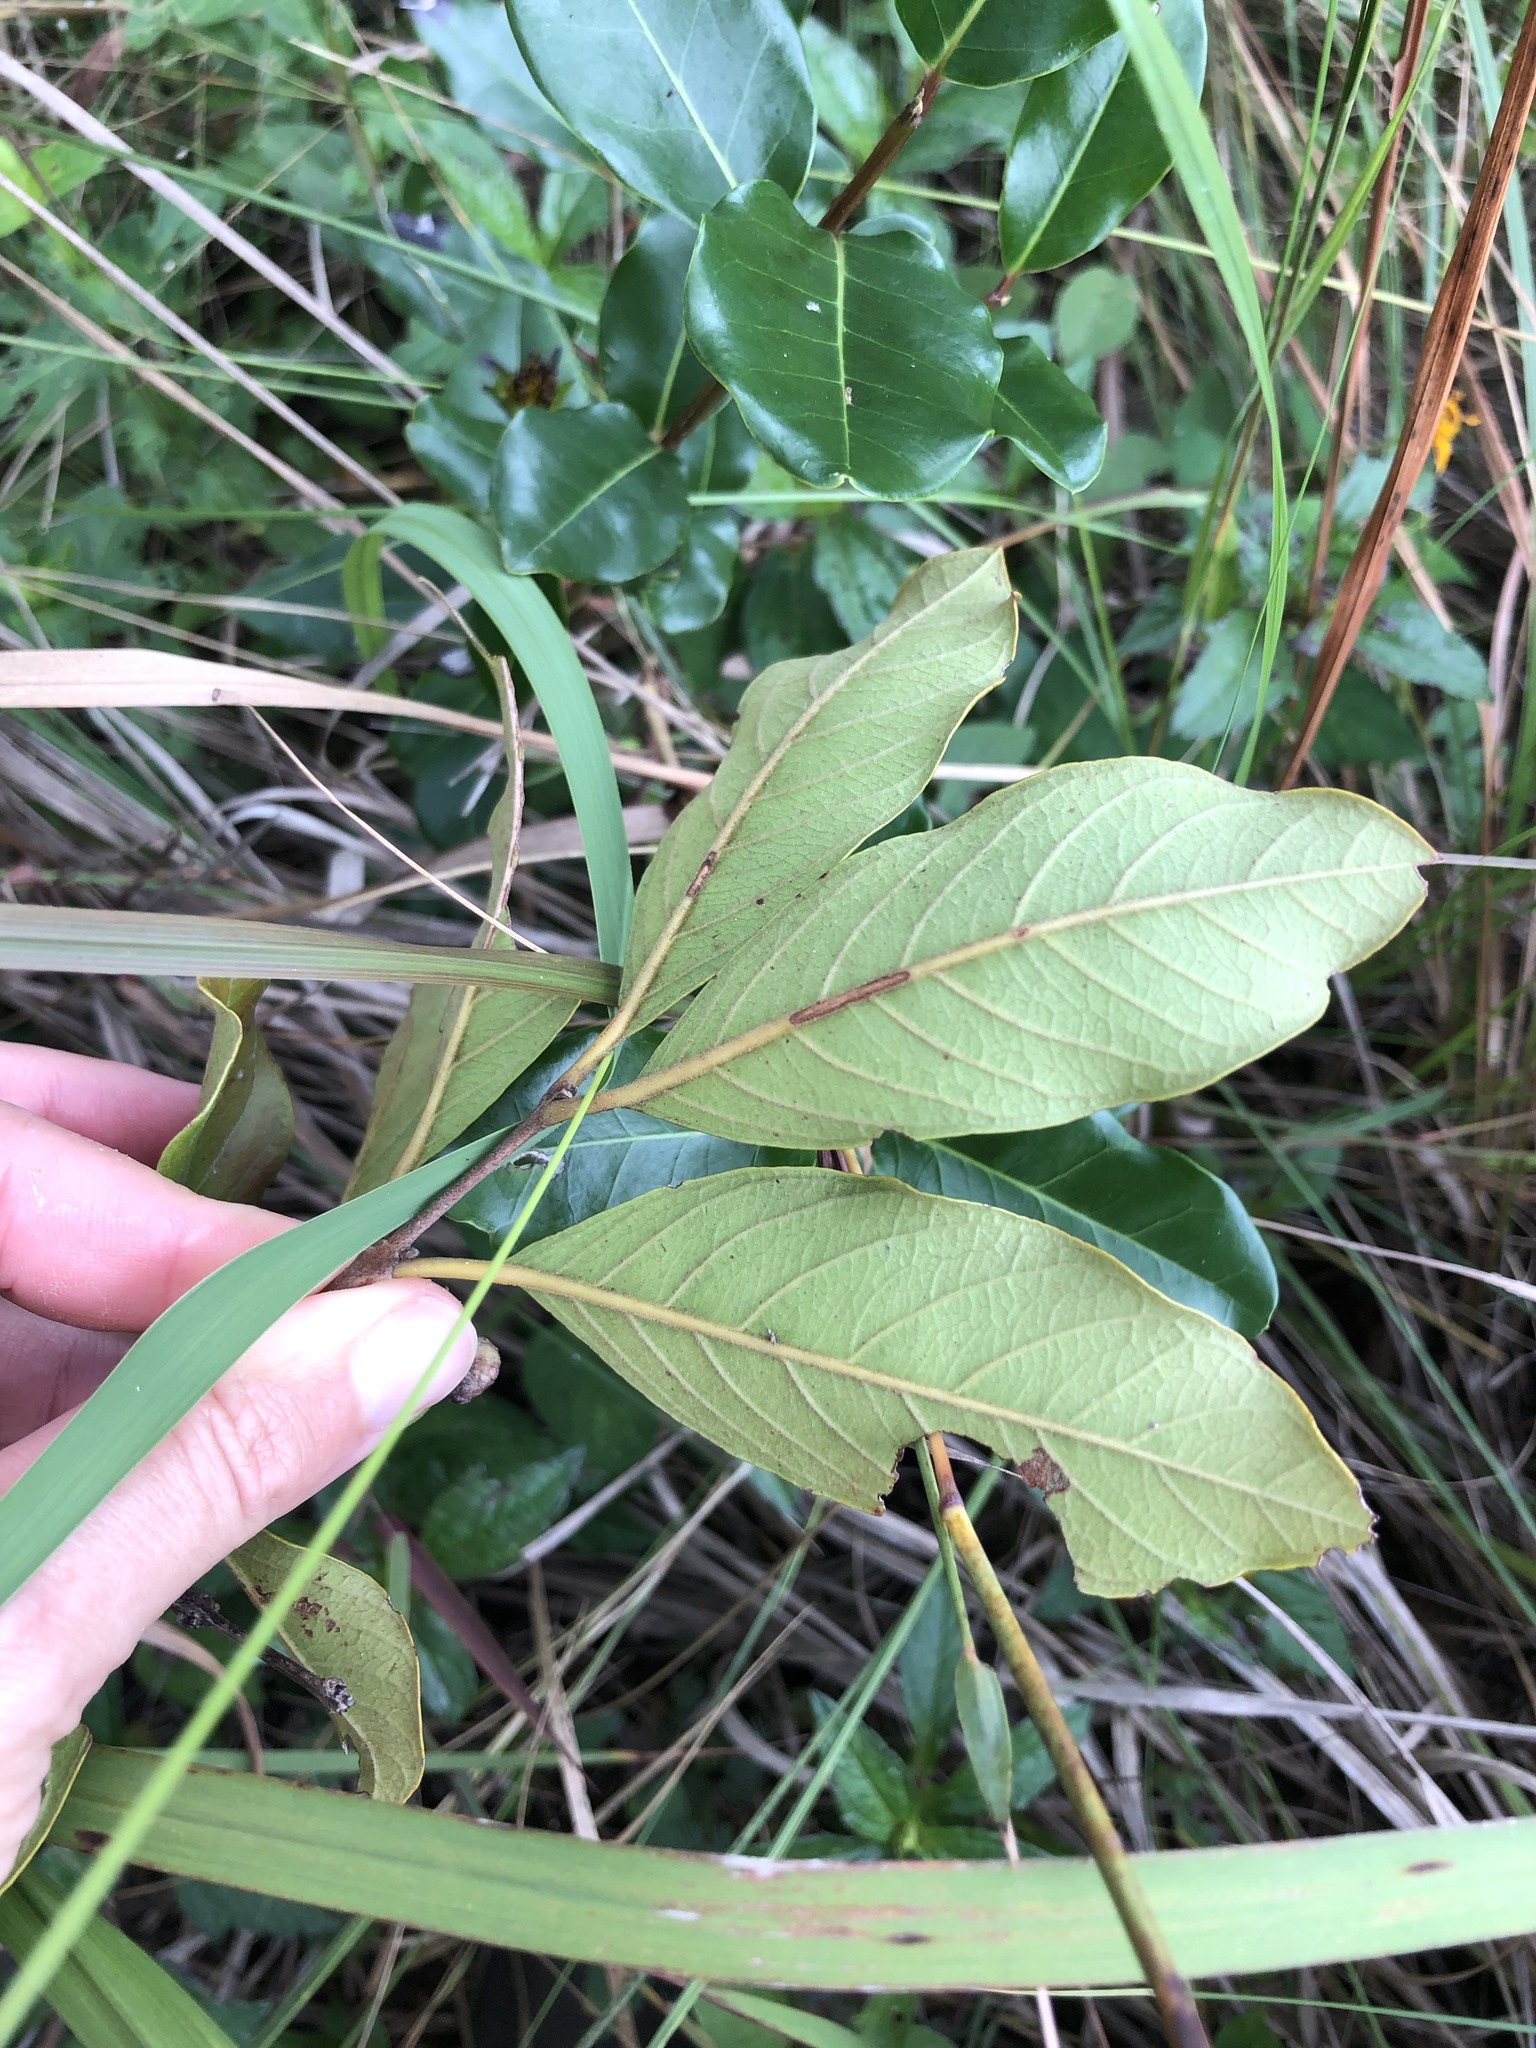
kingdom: Plantae
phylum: Tracheophyta
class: Magnoliopsida
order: Myrtales
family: Myrtaceae
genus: Psidium
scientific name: Psidium guajava
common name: Guava
